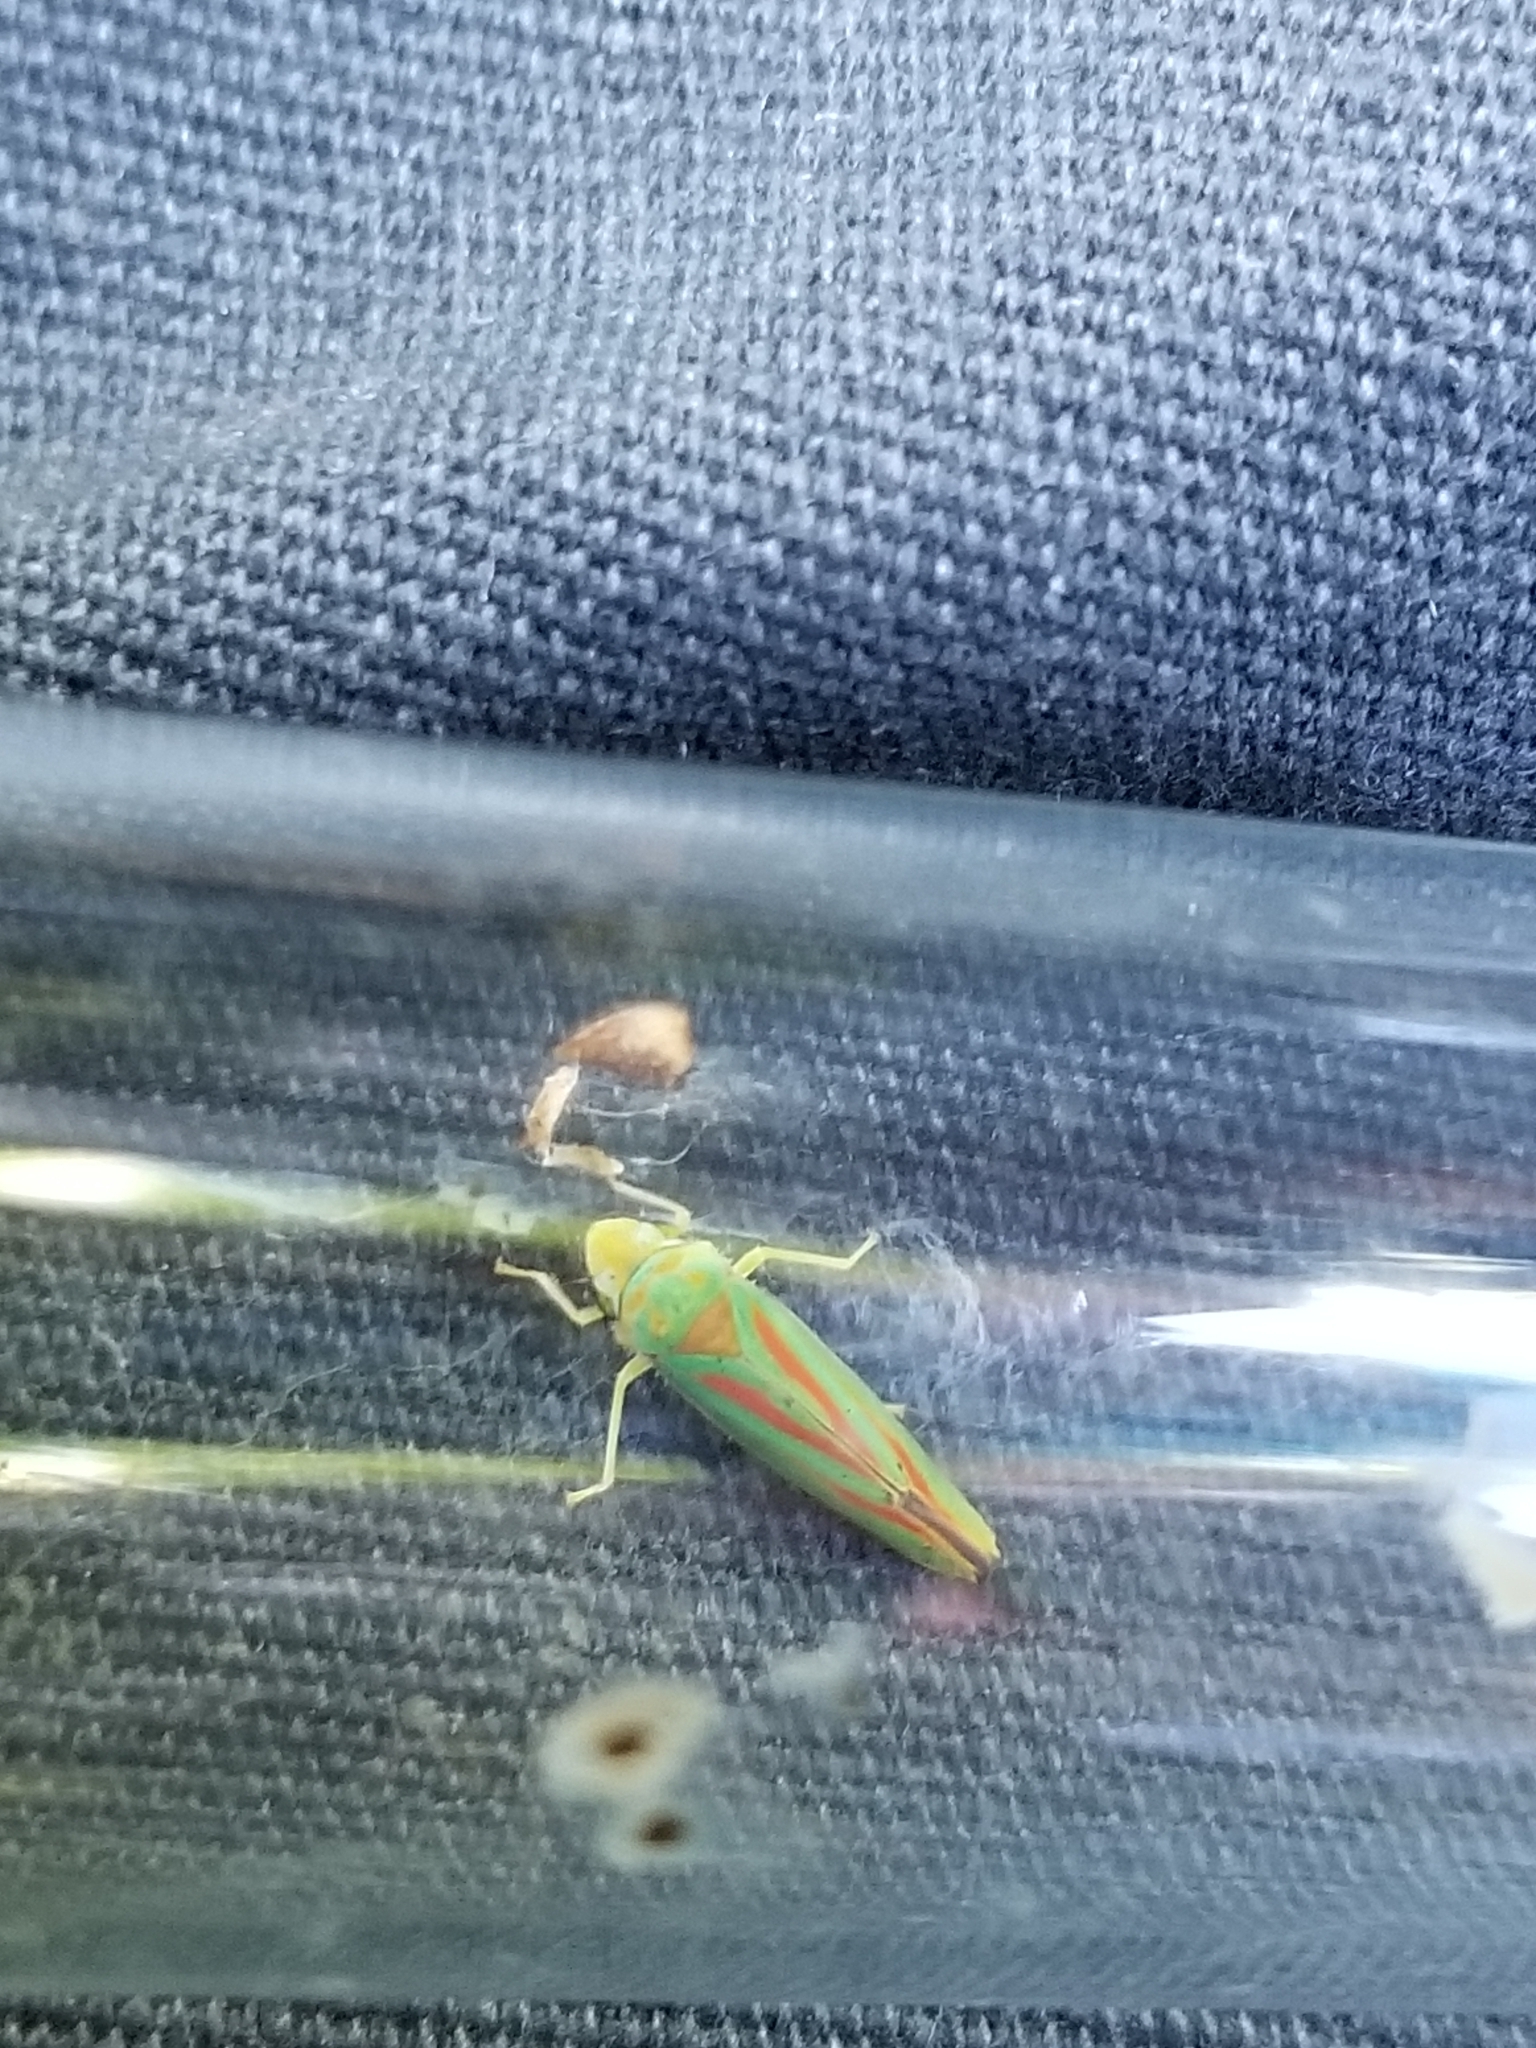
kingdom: Animalia
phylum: Arthropoda
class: Insecta
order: Hemiptera
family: Cicadellidae
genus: Graphocephala
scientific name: Graphocephala fennahi
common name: Rhododendron leafhopper
